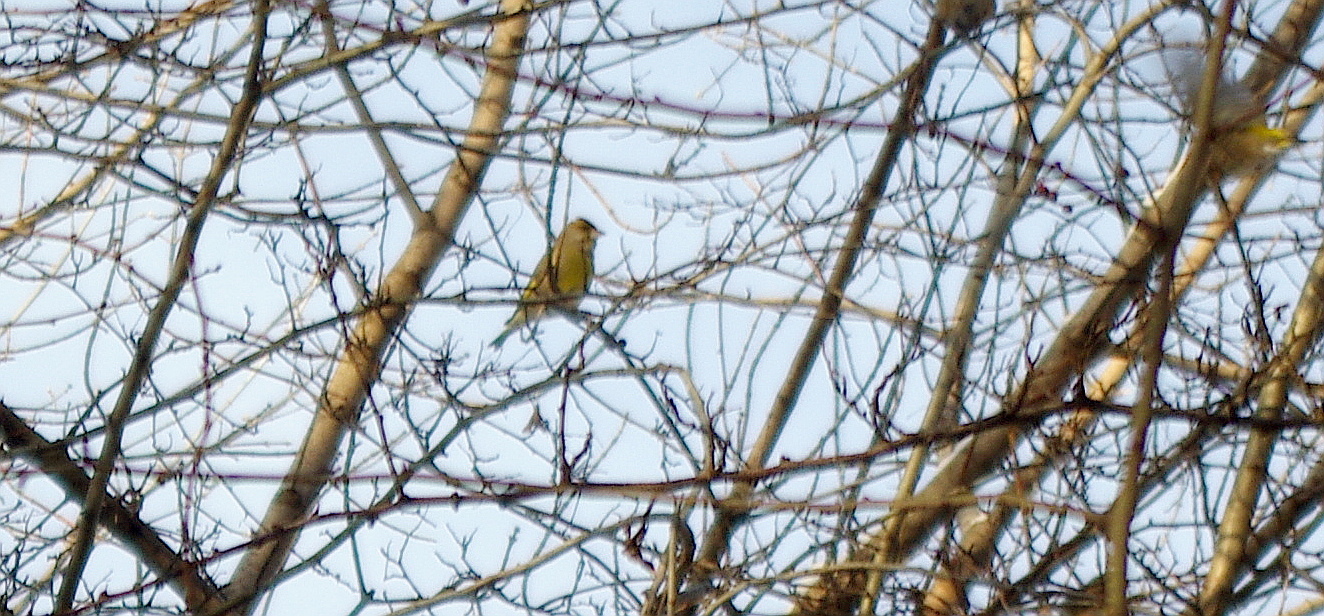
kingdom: Plantae
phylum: Tracheophyta
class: Liliopsida
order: Poales
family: Poaceae
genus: Chloris
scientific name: Chloris chloris
